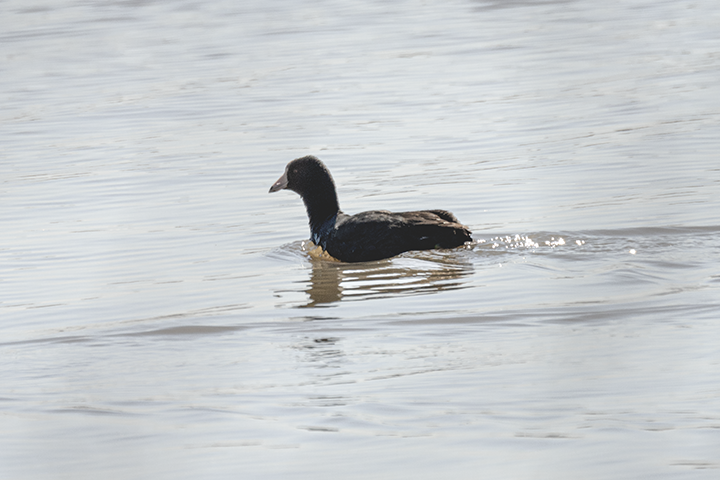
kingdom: Animalia
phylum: Chordata
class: Aves
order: Gruiformes
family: Rallidae
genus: Fulica
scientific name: Fulica americana
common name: American coot
